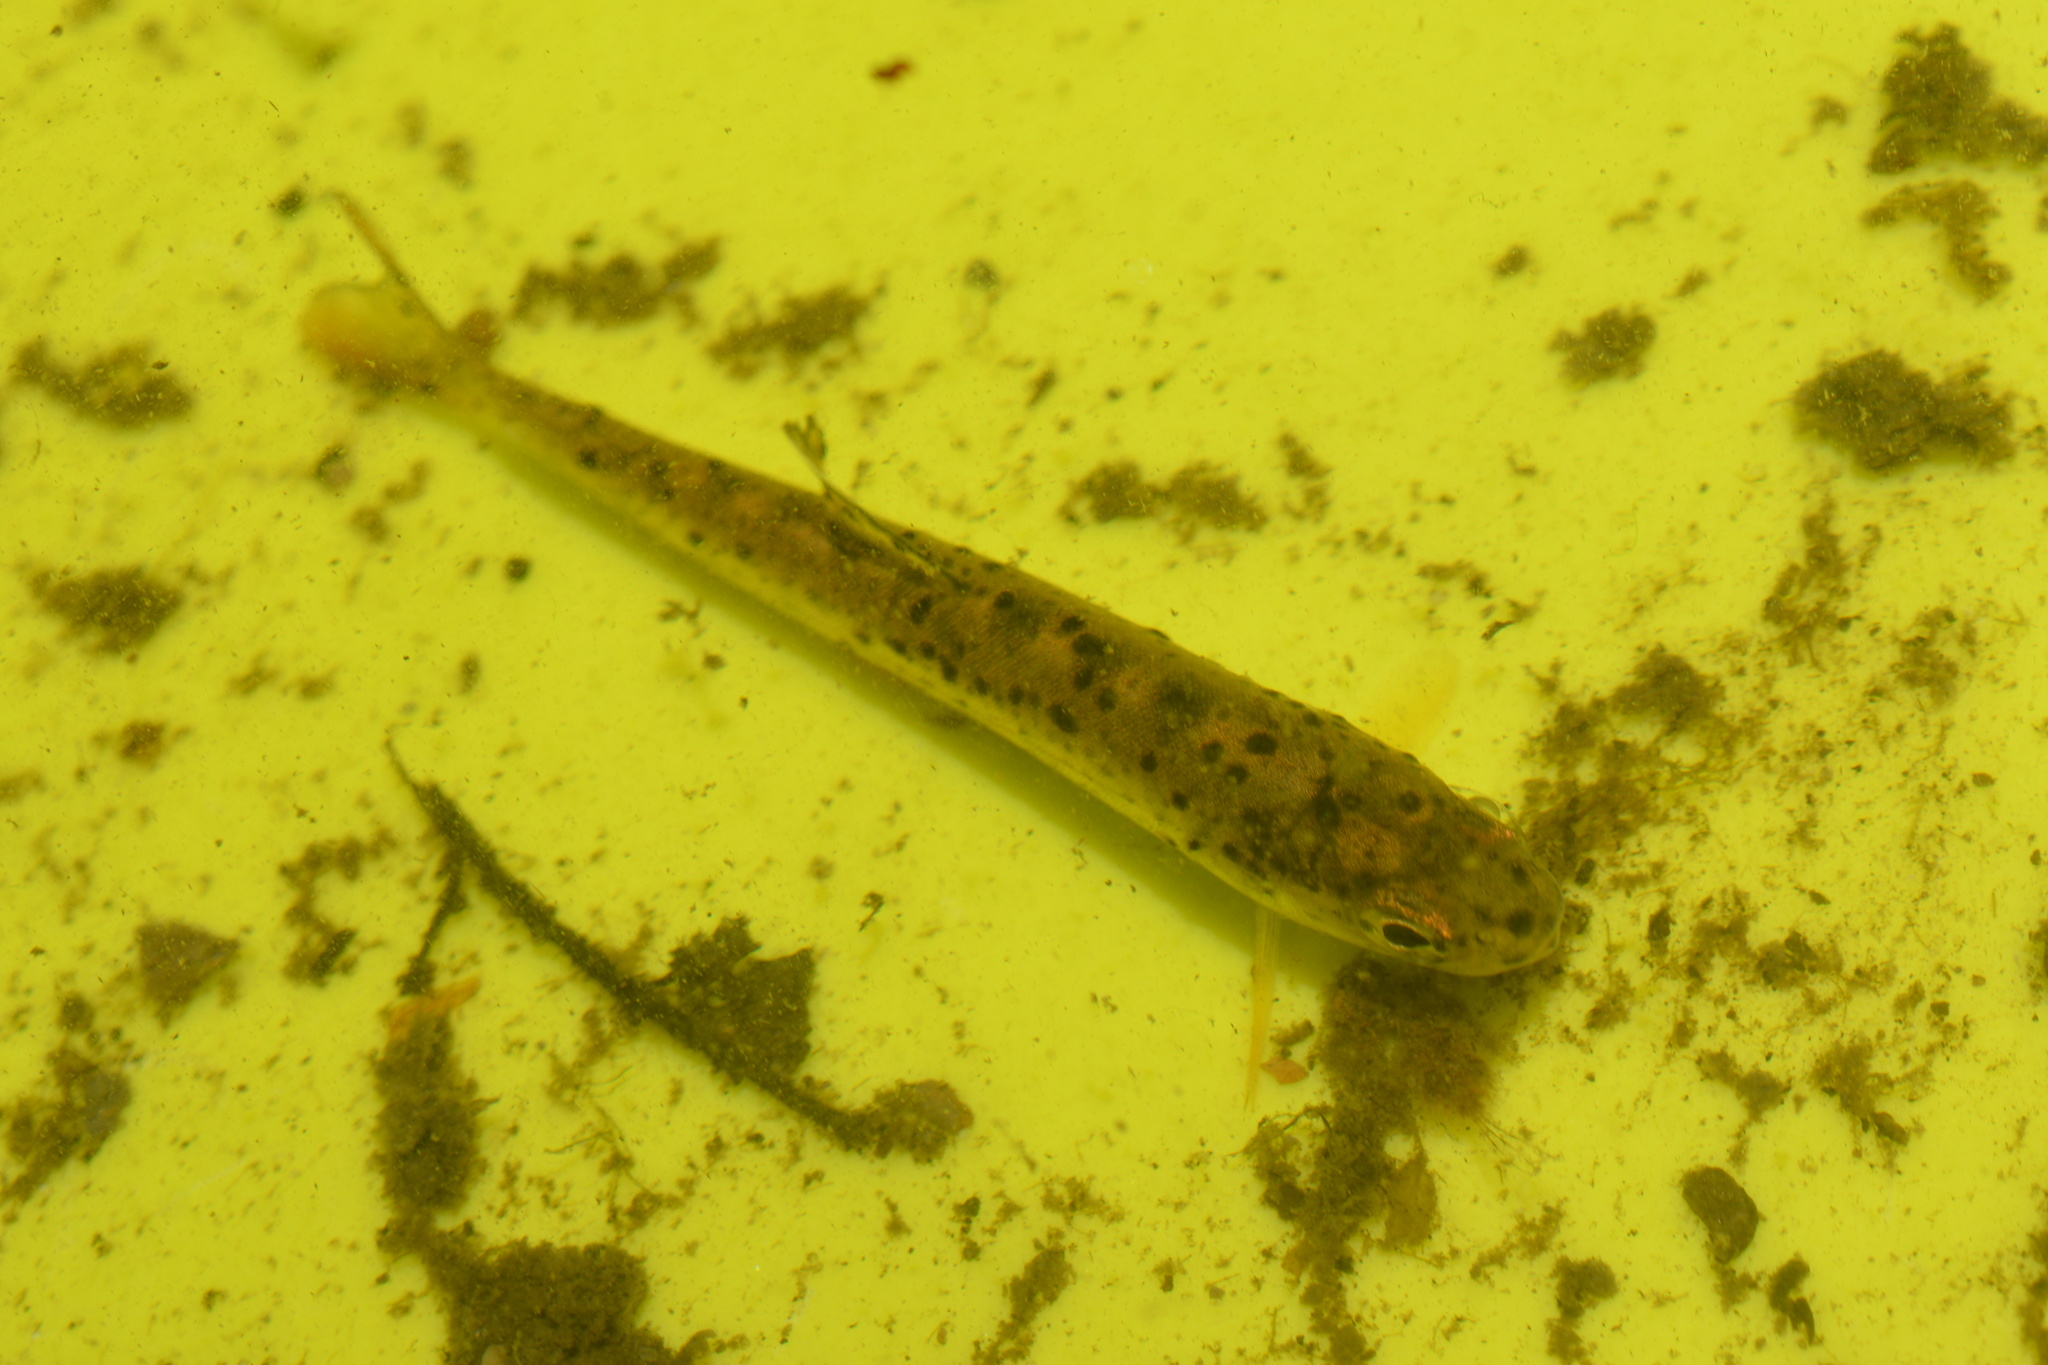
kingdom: Animalia
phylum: Platyhelminthes
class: Trematoda
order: Diplostomida
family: Diplostomidae
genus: Neascus
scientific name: Neascus
